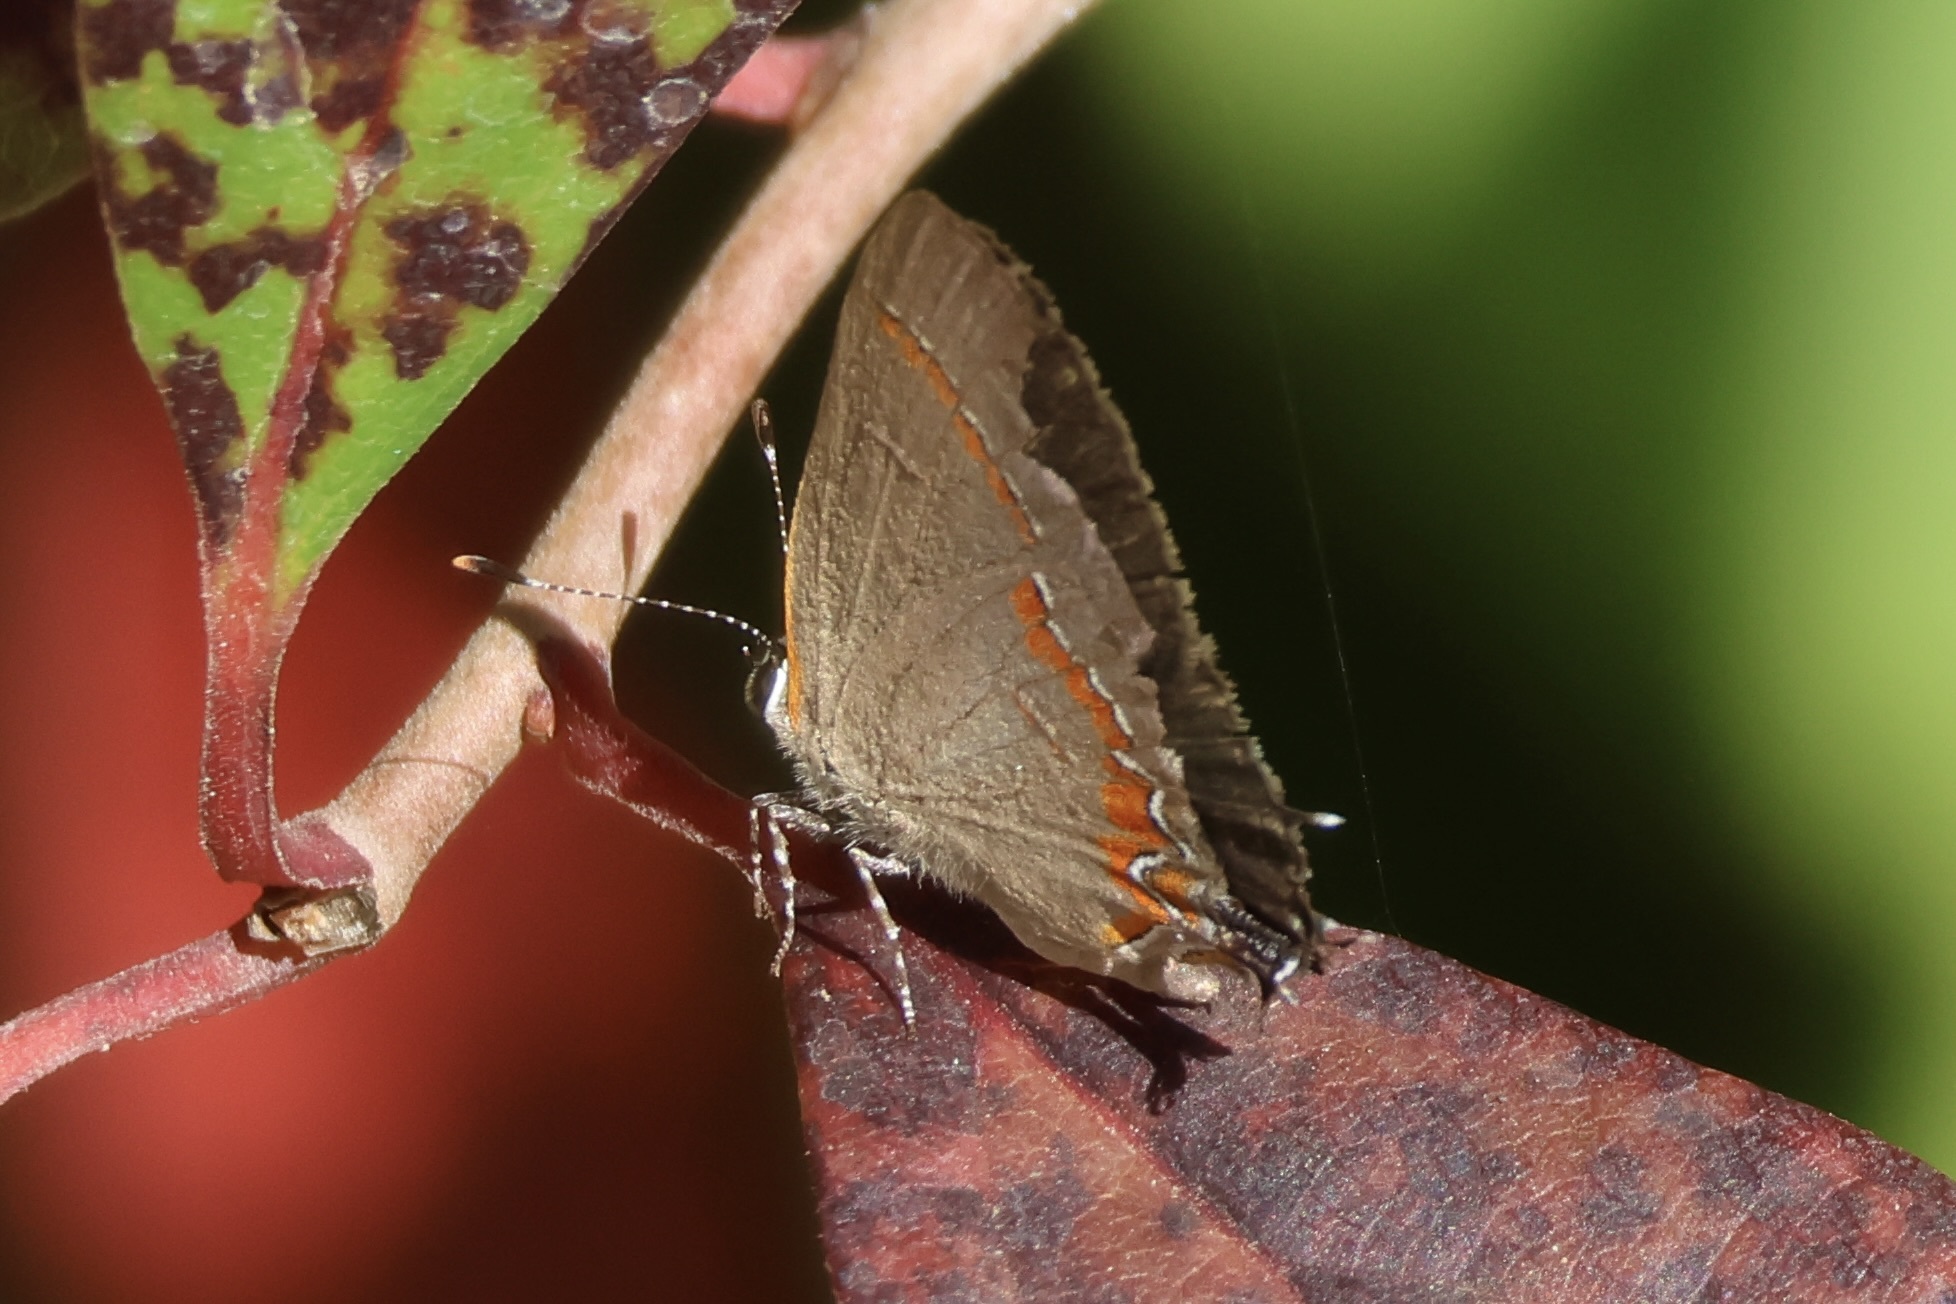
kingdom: Animalia
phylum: Arthropoda
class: Insecta
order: Lepidoptera
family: Lycaenidae
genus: Calycopis
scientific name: Calycopis cecrops
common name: Red-banded hairstreak
